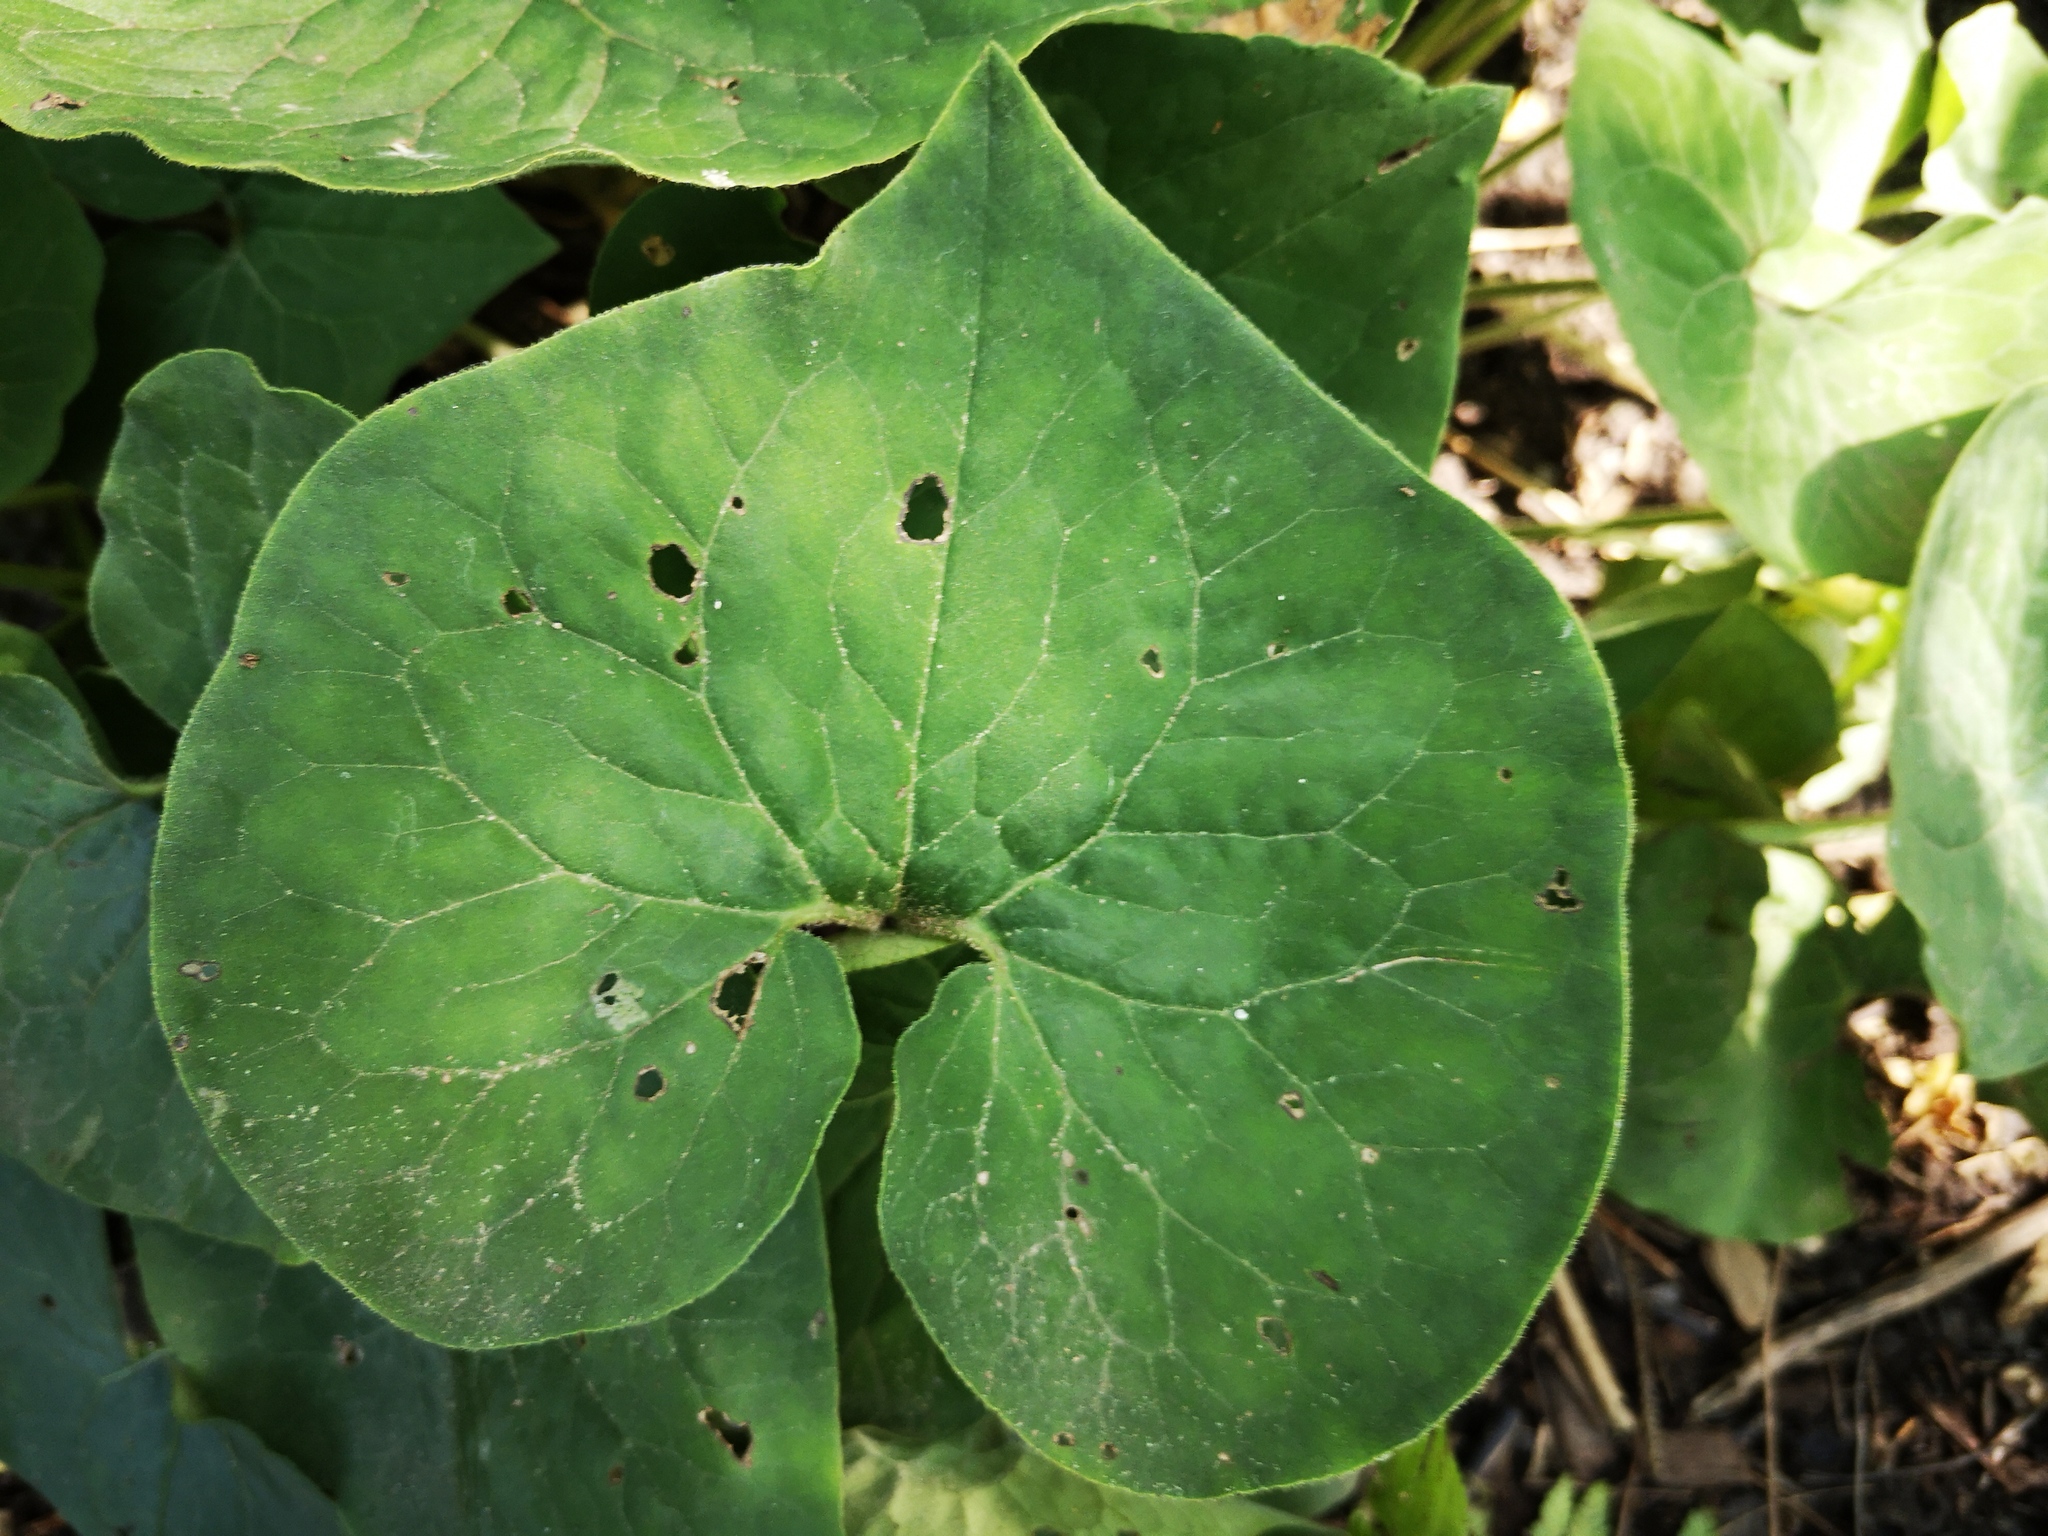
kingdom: Plantae
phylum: Tracheophyta
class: Magnoliopsida
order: Piperales
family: Aristolochiaceae
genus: Asarum
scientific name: Asarum canadense
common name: Wild ginger
